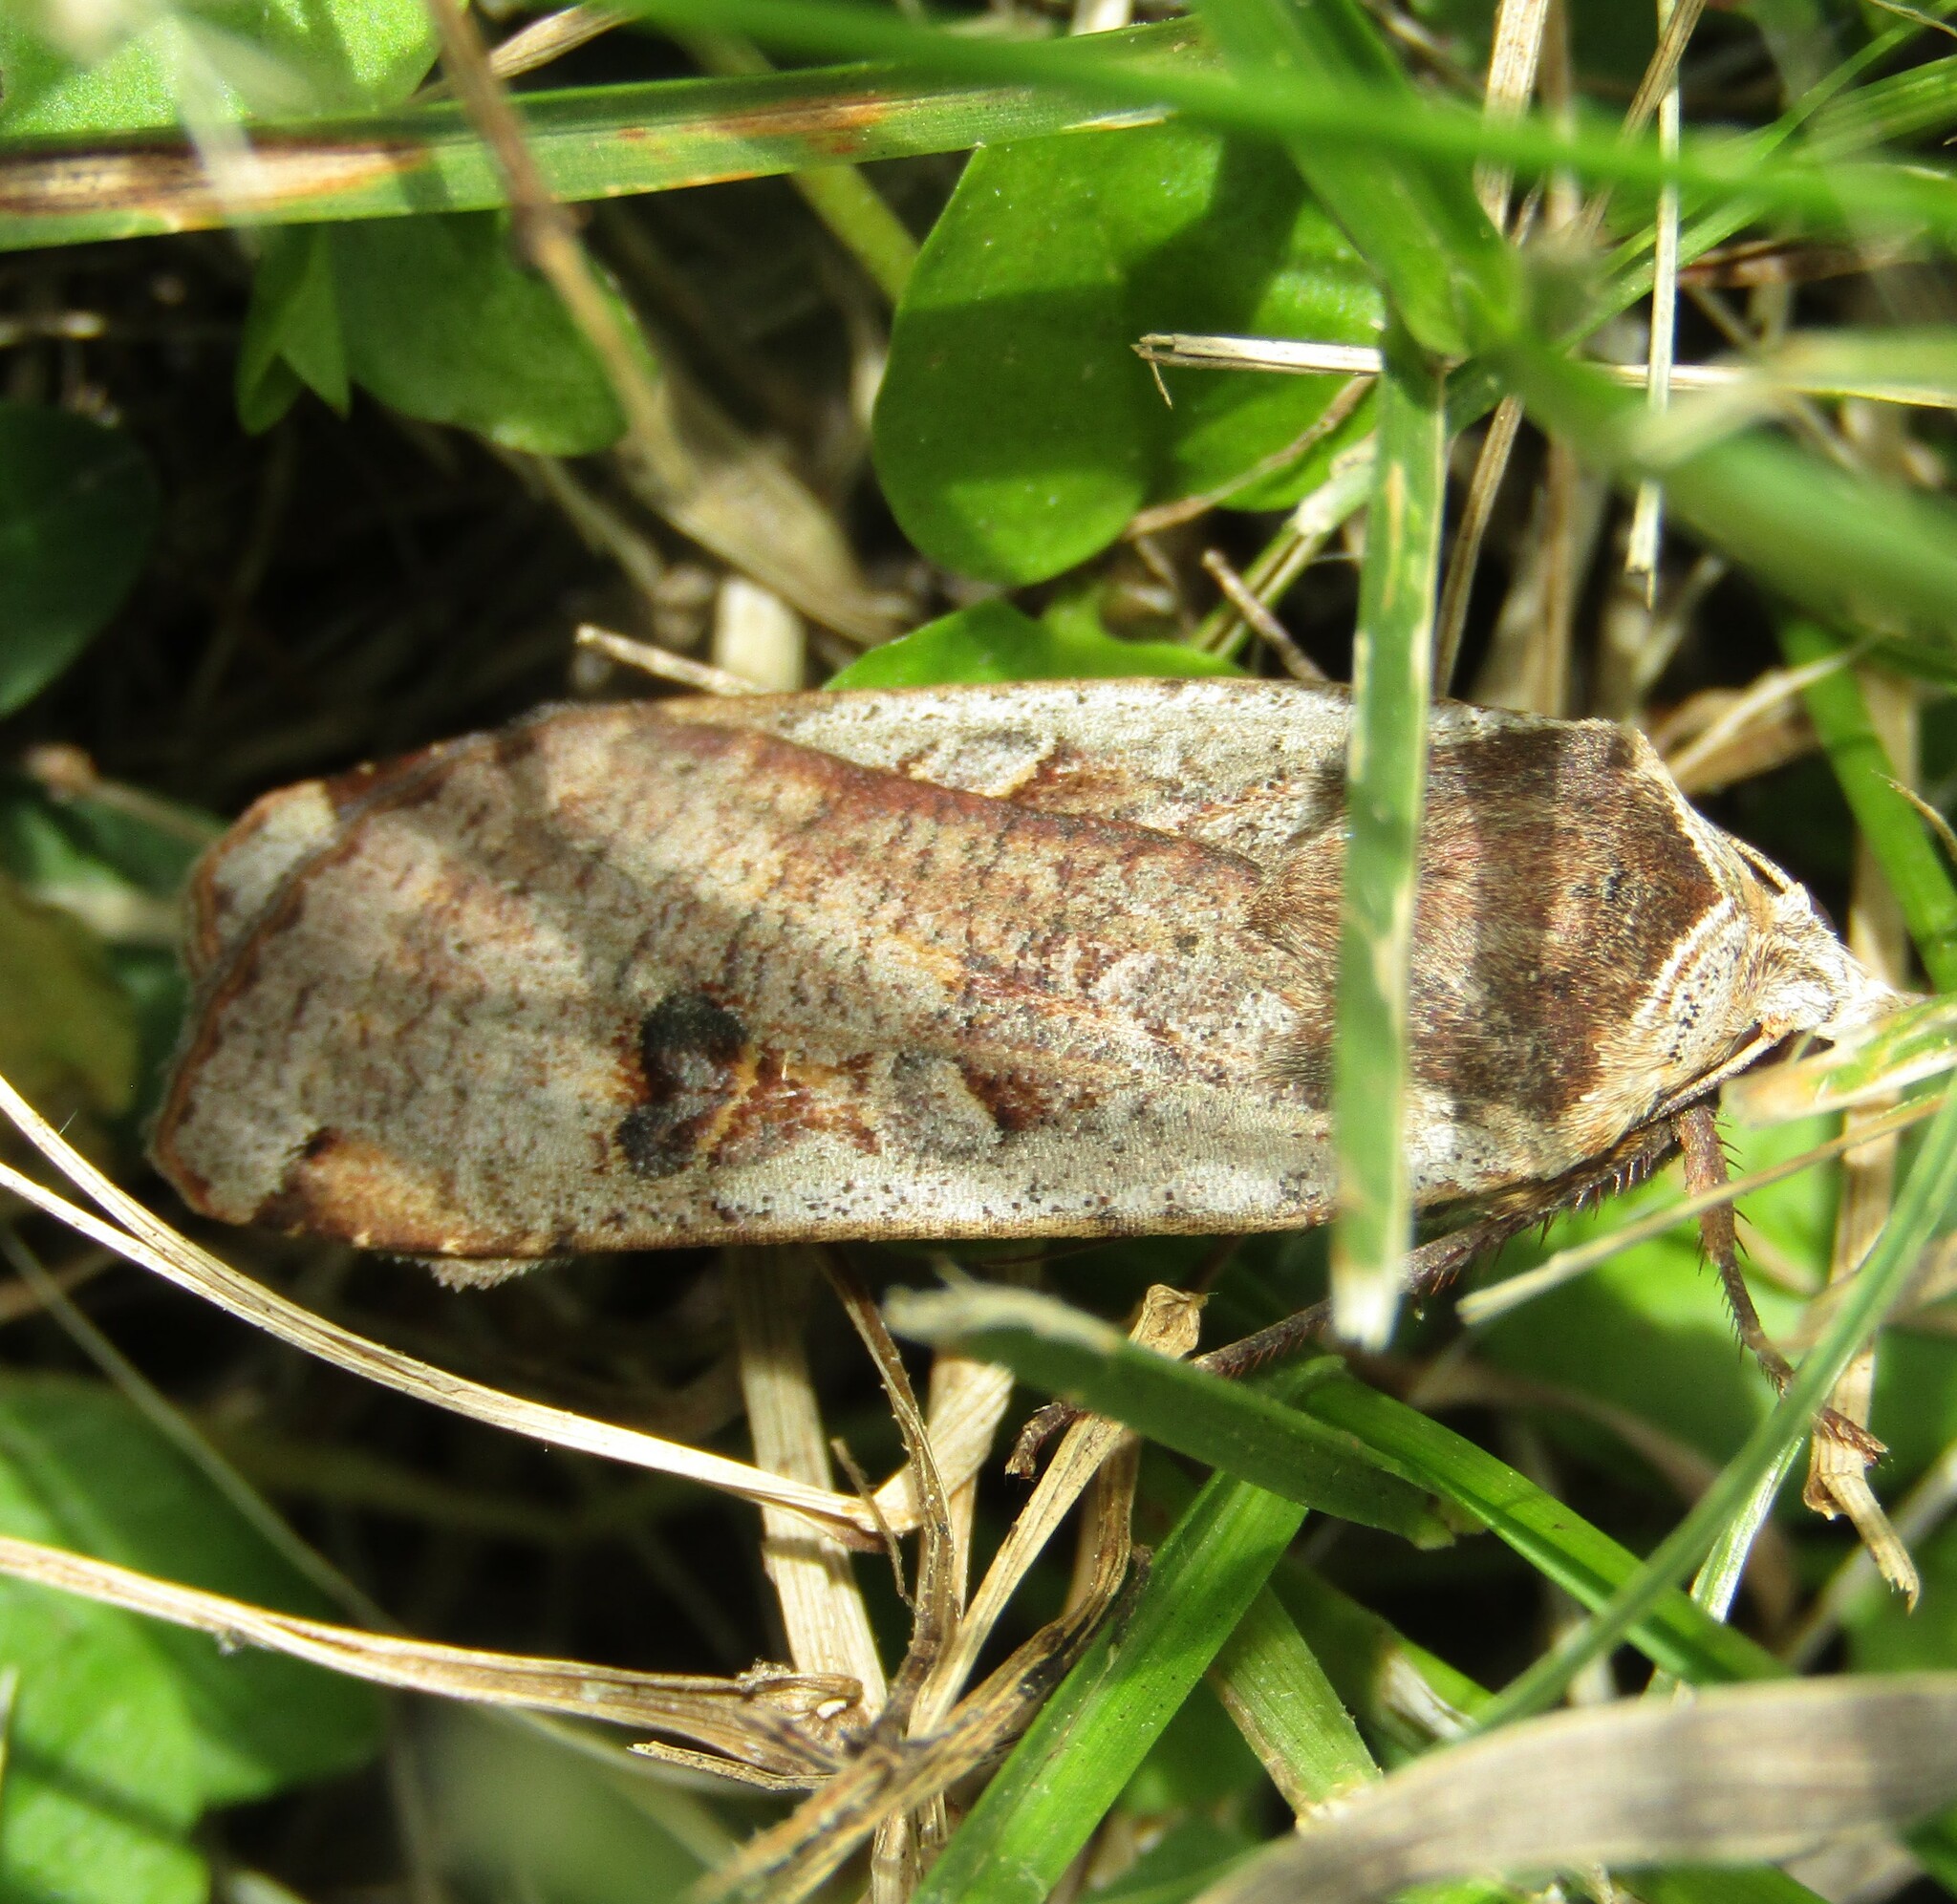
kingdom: Animalia
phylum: Arthropoda
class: Insecta
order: Lepidoptera
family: Noctuidae
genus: Noctua
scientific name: Noctua pronuba
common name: Large yellow underwing
